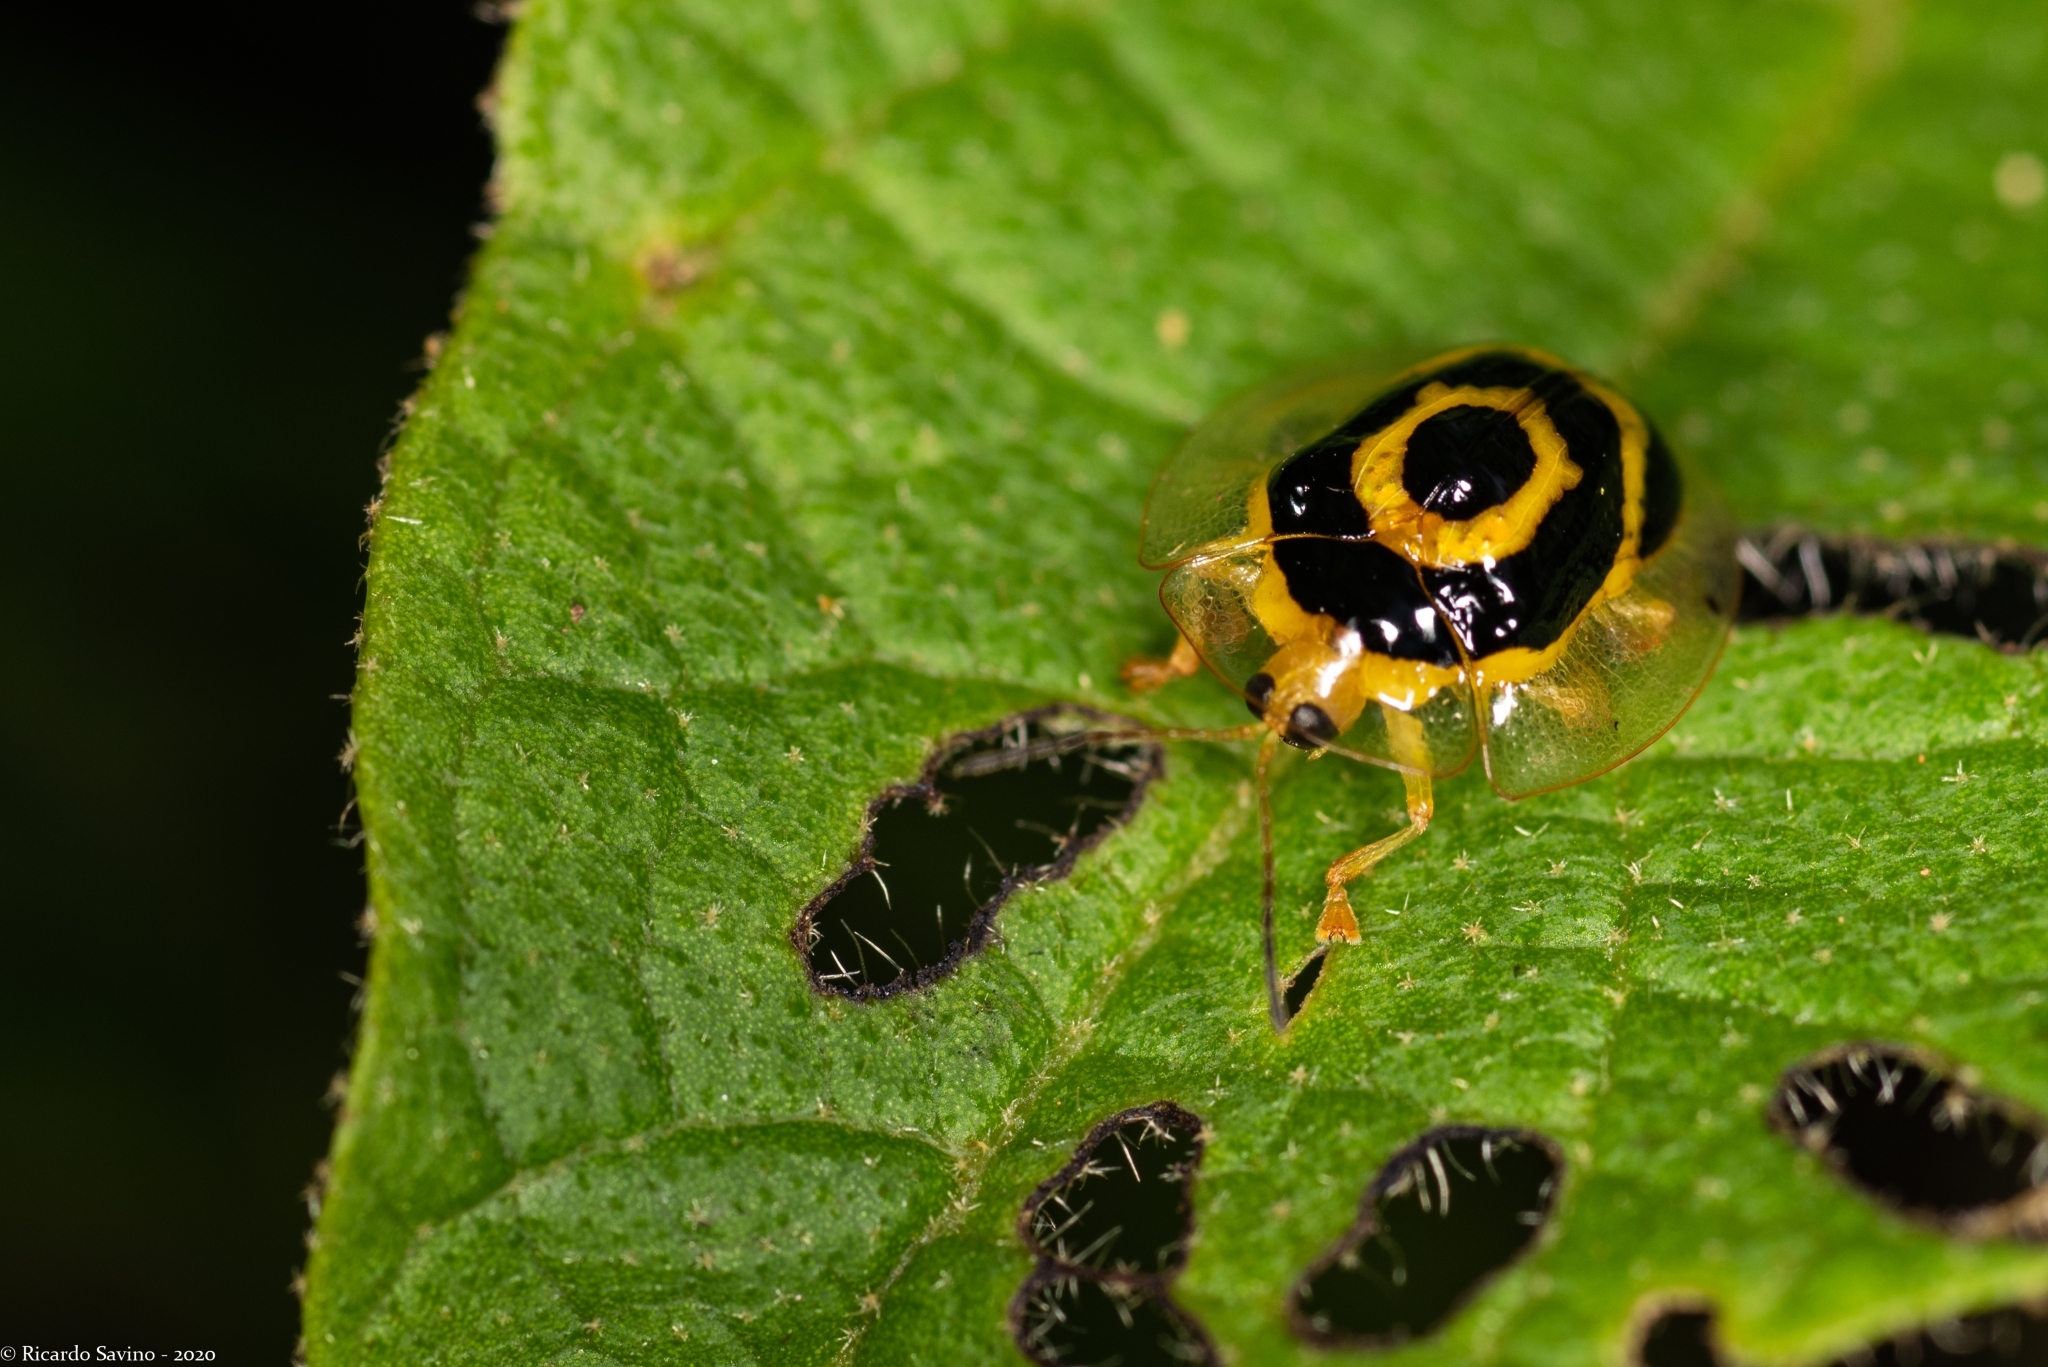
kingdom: Animalia
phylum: Arthropoda
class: Insecta
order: Coleoptera
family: Chrysomelidae
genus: Ischnocodia
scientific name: Ischnocodia annulus
